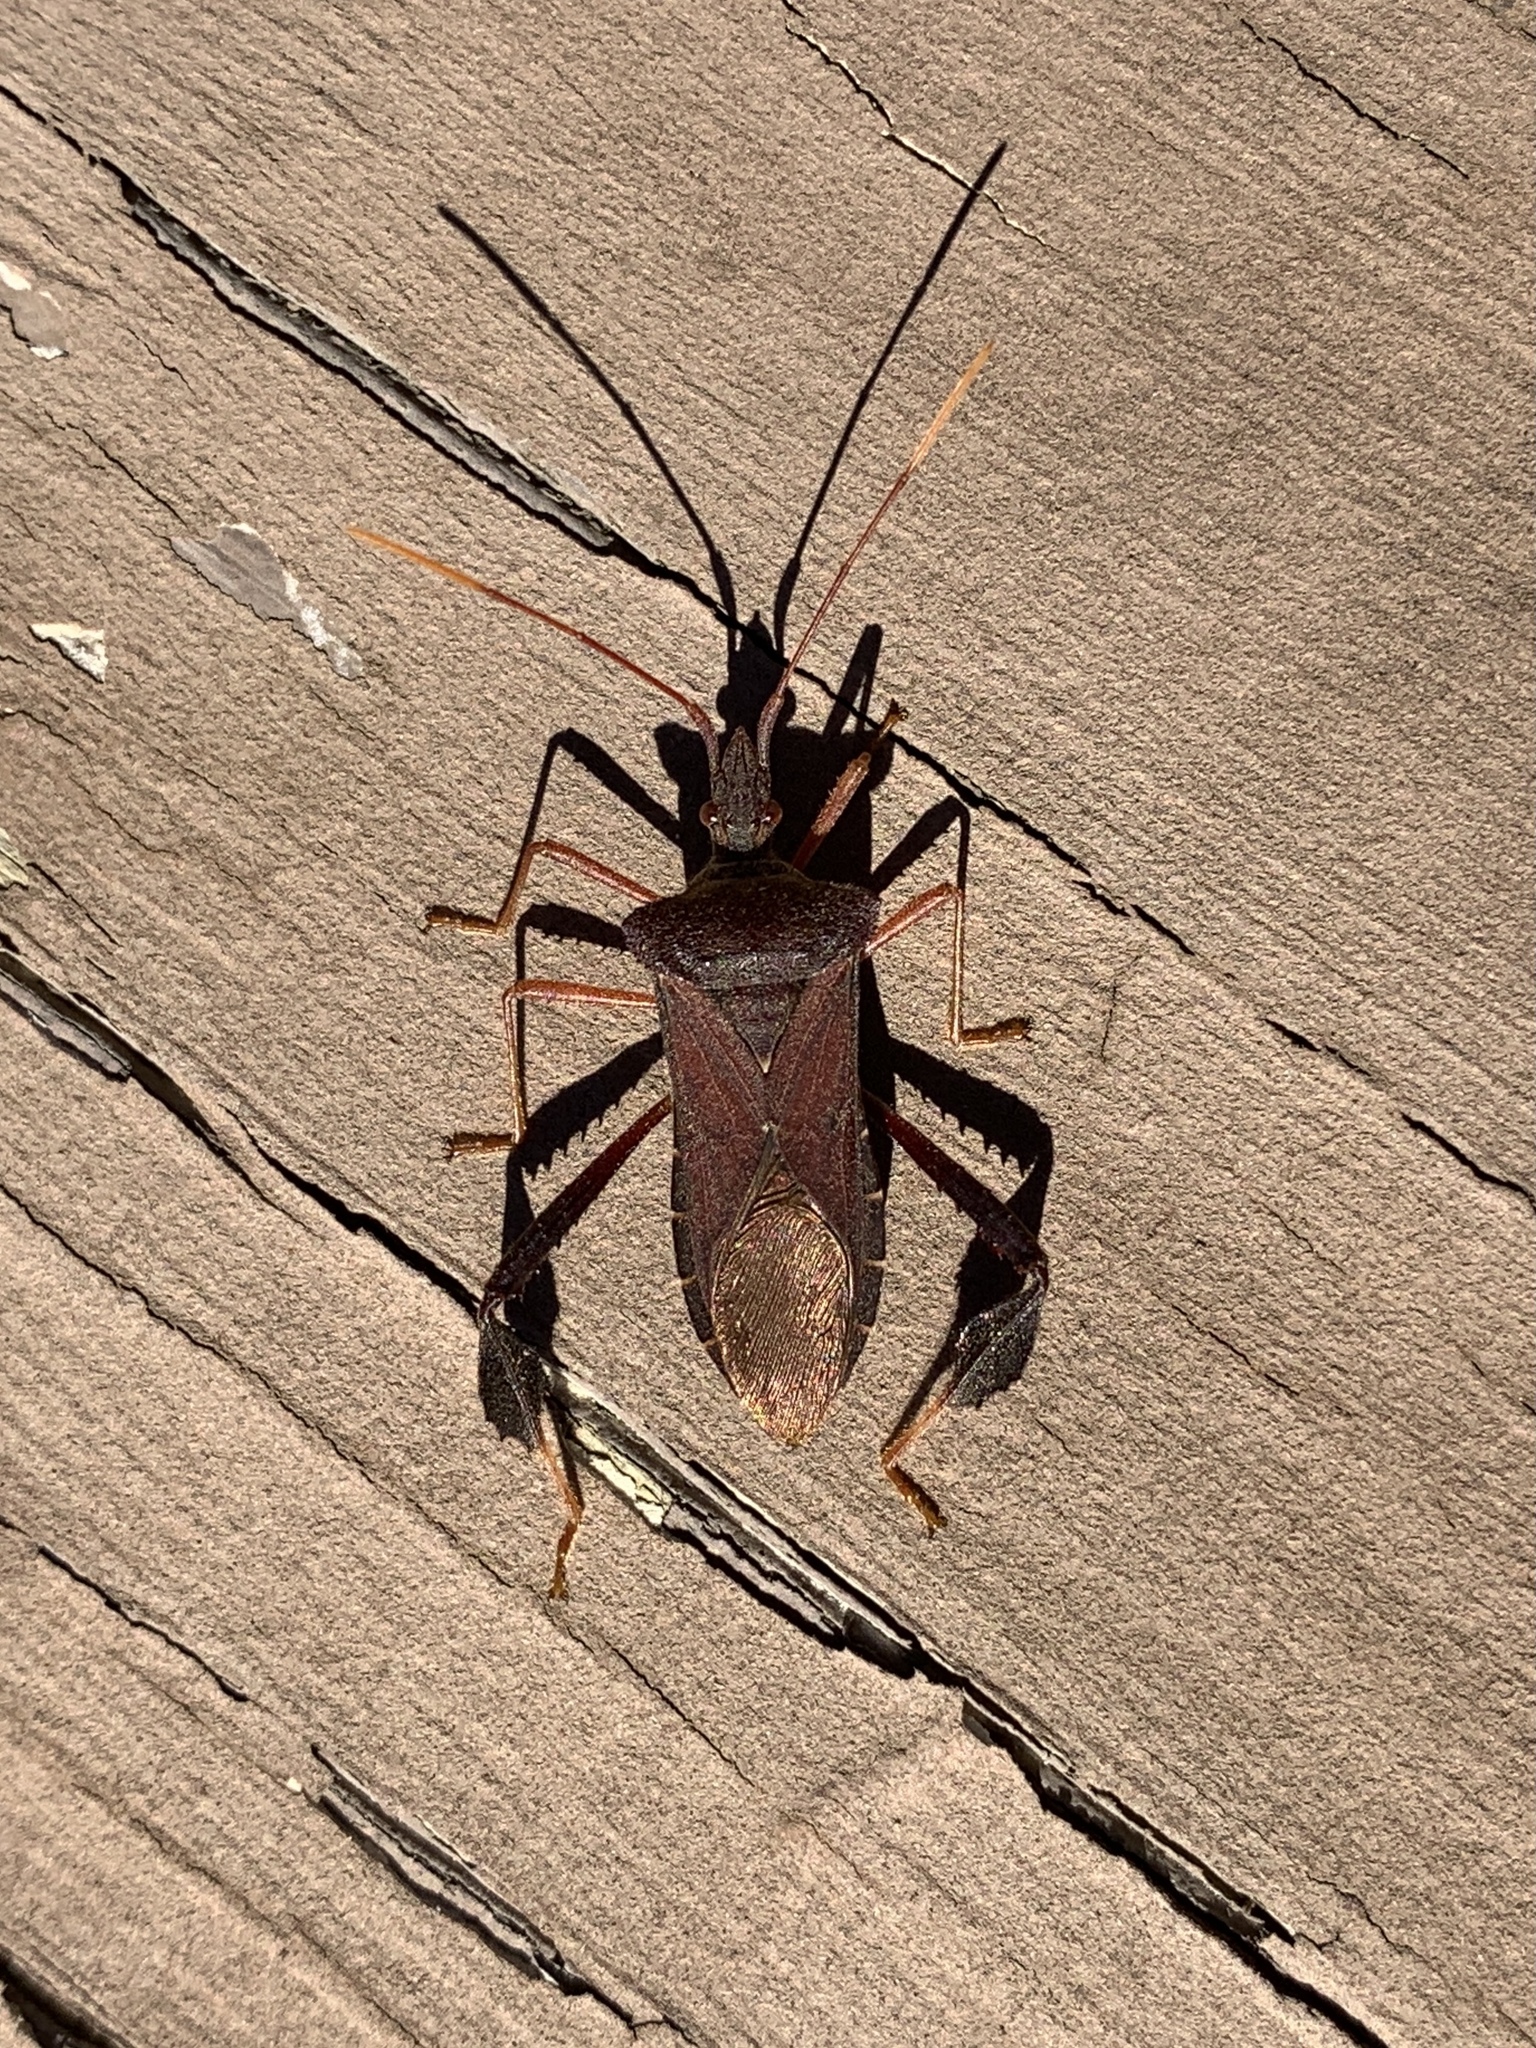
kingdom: Animalia
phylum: Arthropoda
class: Insecta
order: Hemiptera
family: Coreidae
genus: Leptoglossus
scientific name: Leptoglossus fulvicornis
